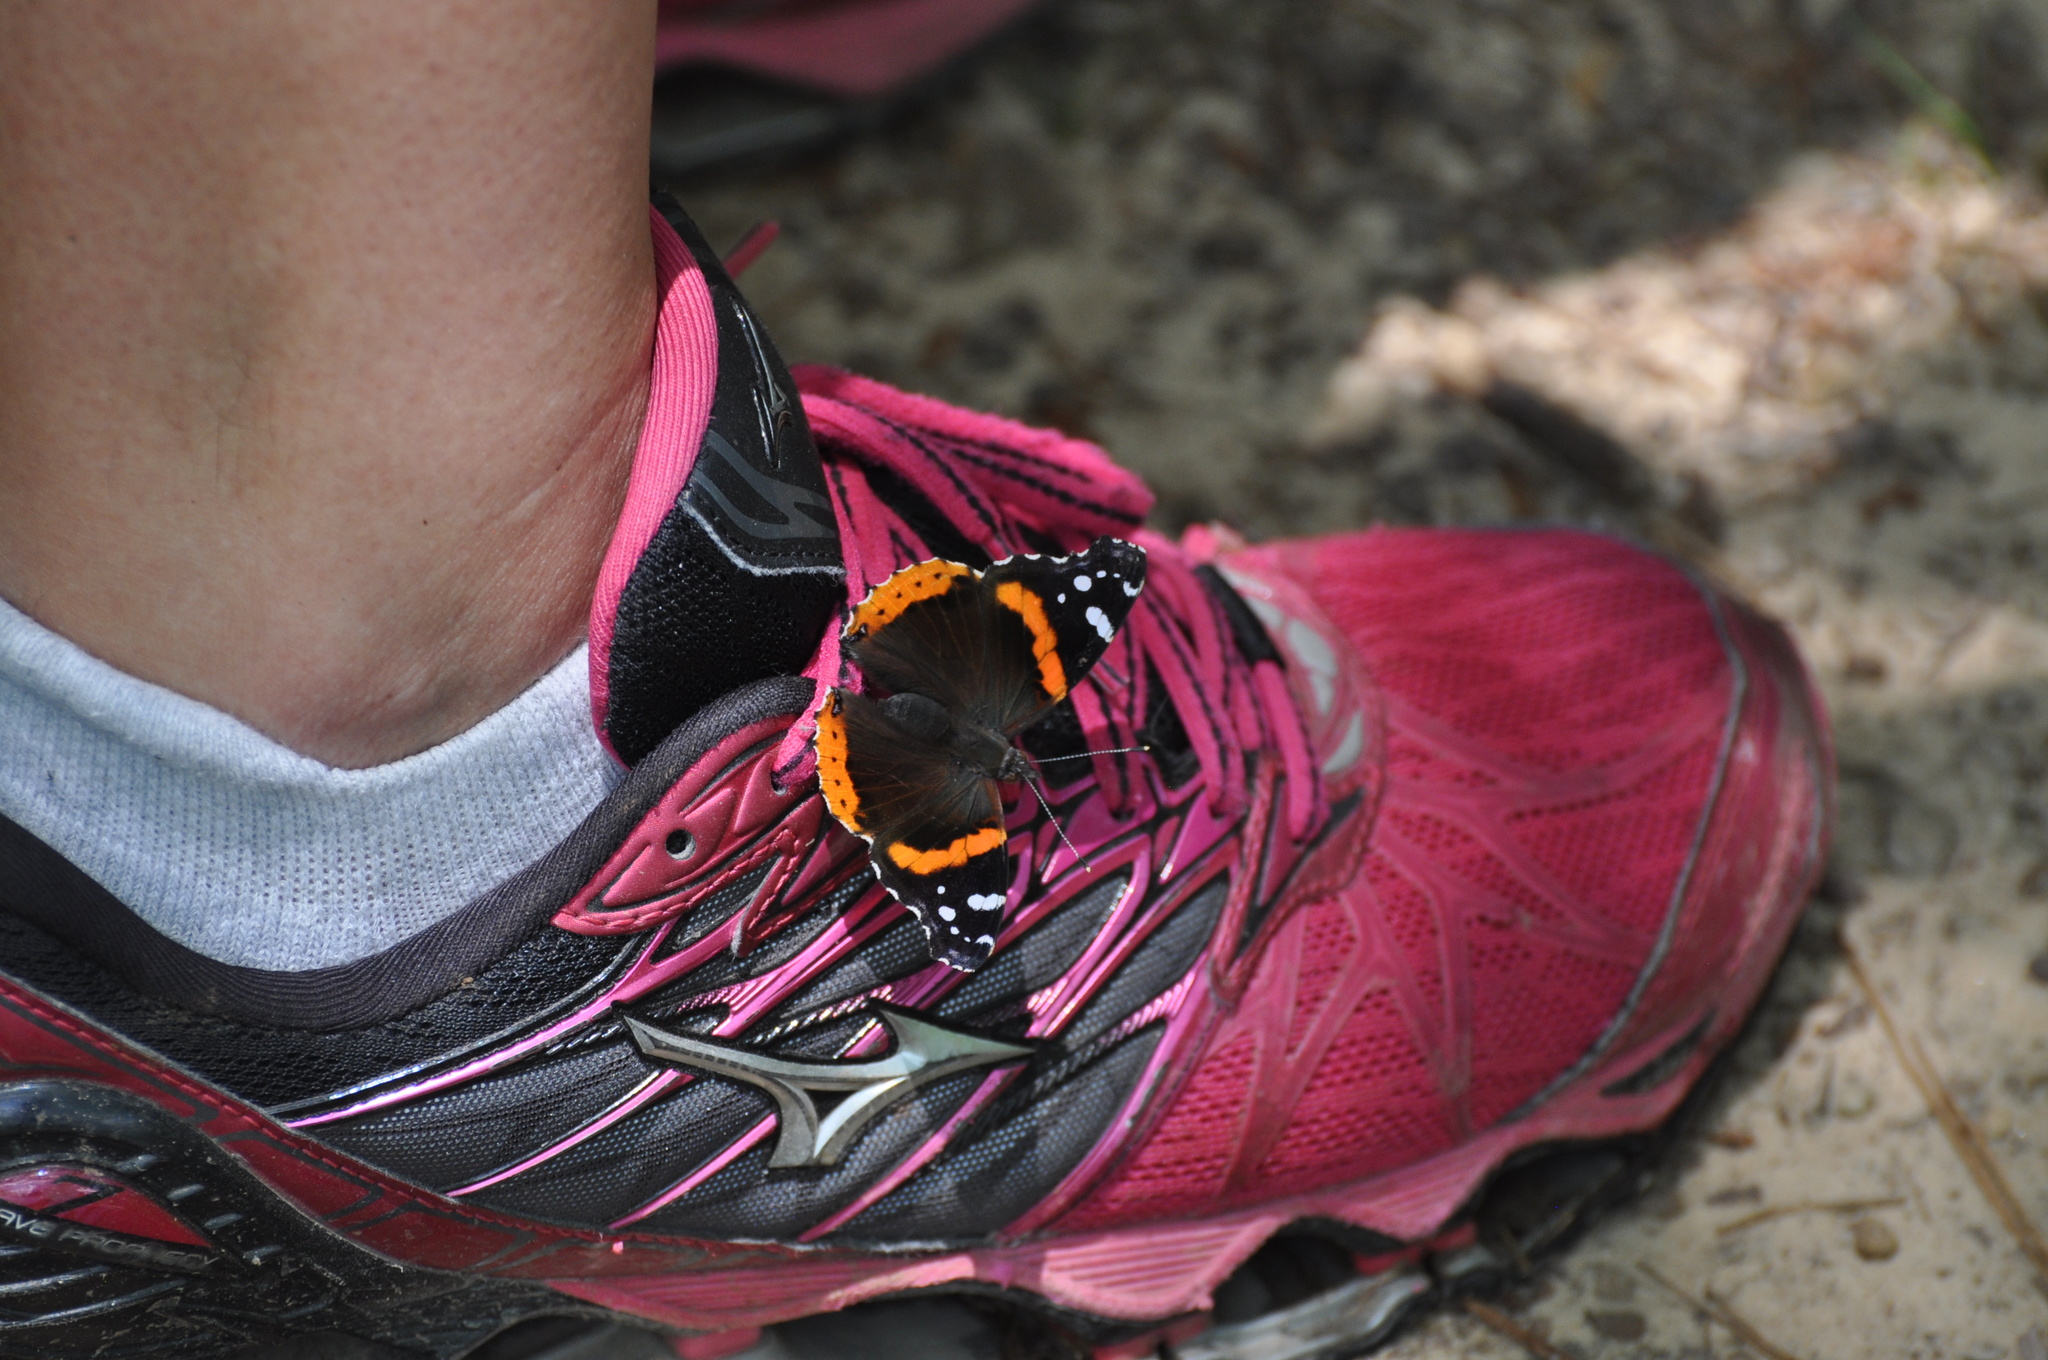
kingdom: Animalia
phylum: Arthropoda
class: Insecta
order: Lepidoptera
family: Nymphalidae
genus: Vanessa
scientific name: Vanessa atalanta
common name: Red admiral
